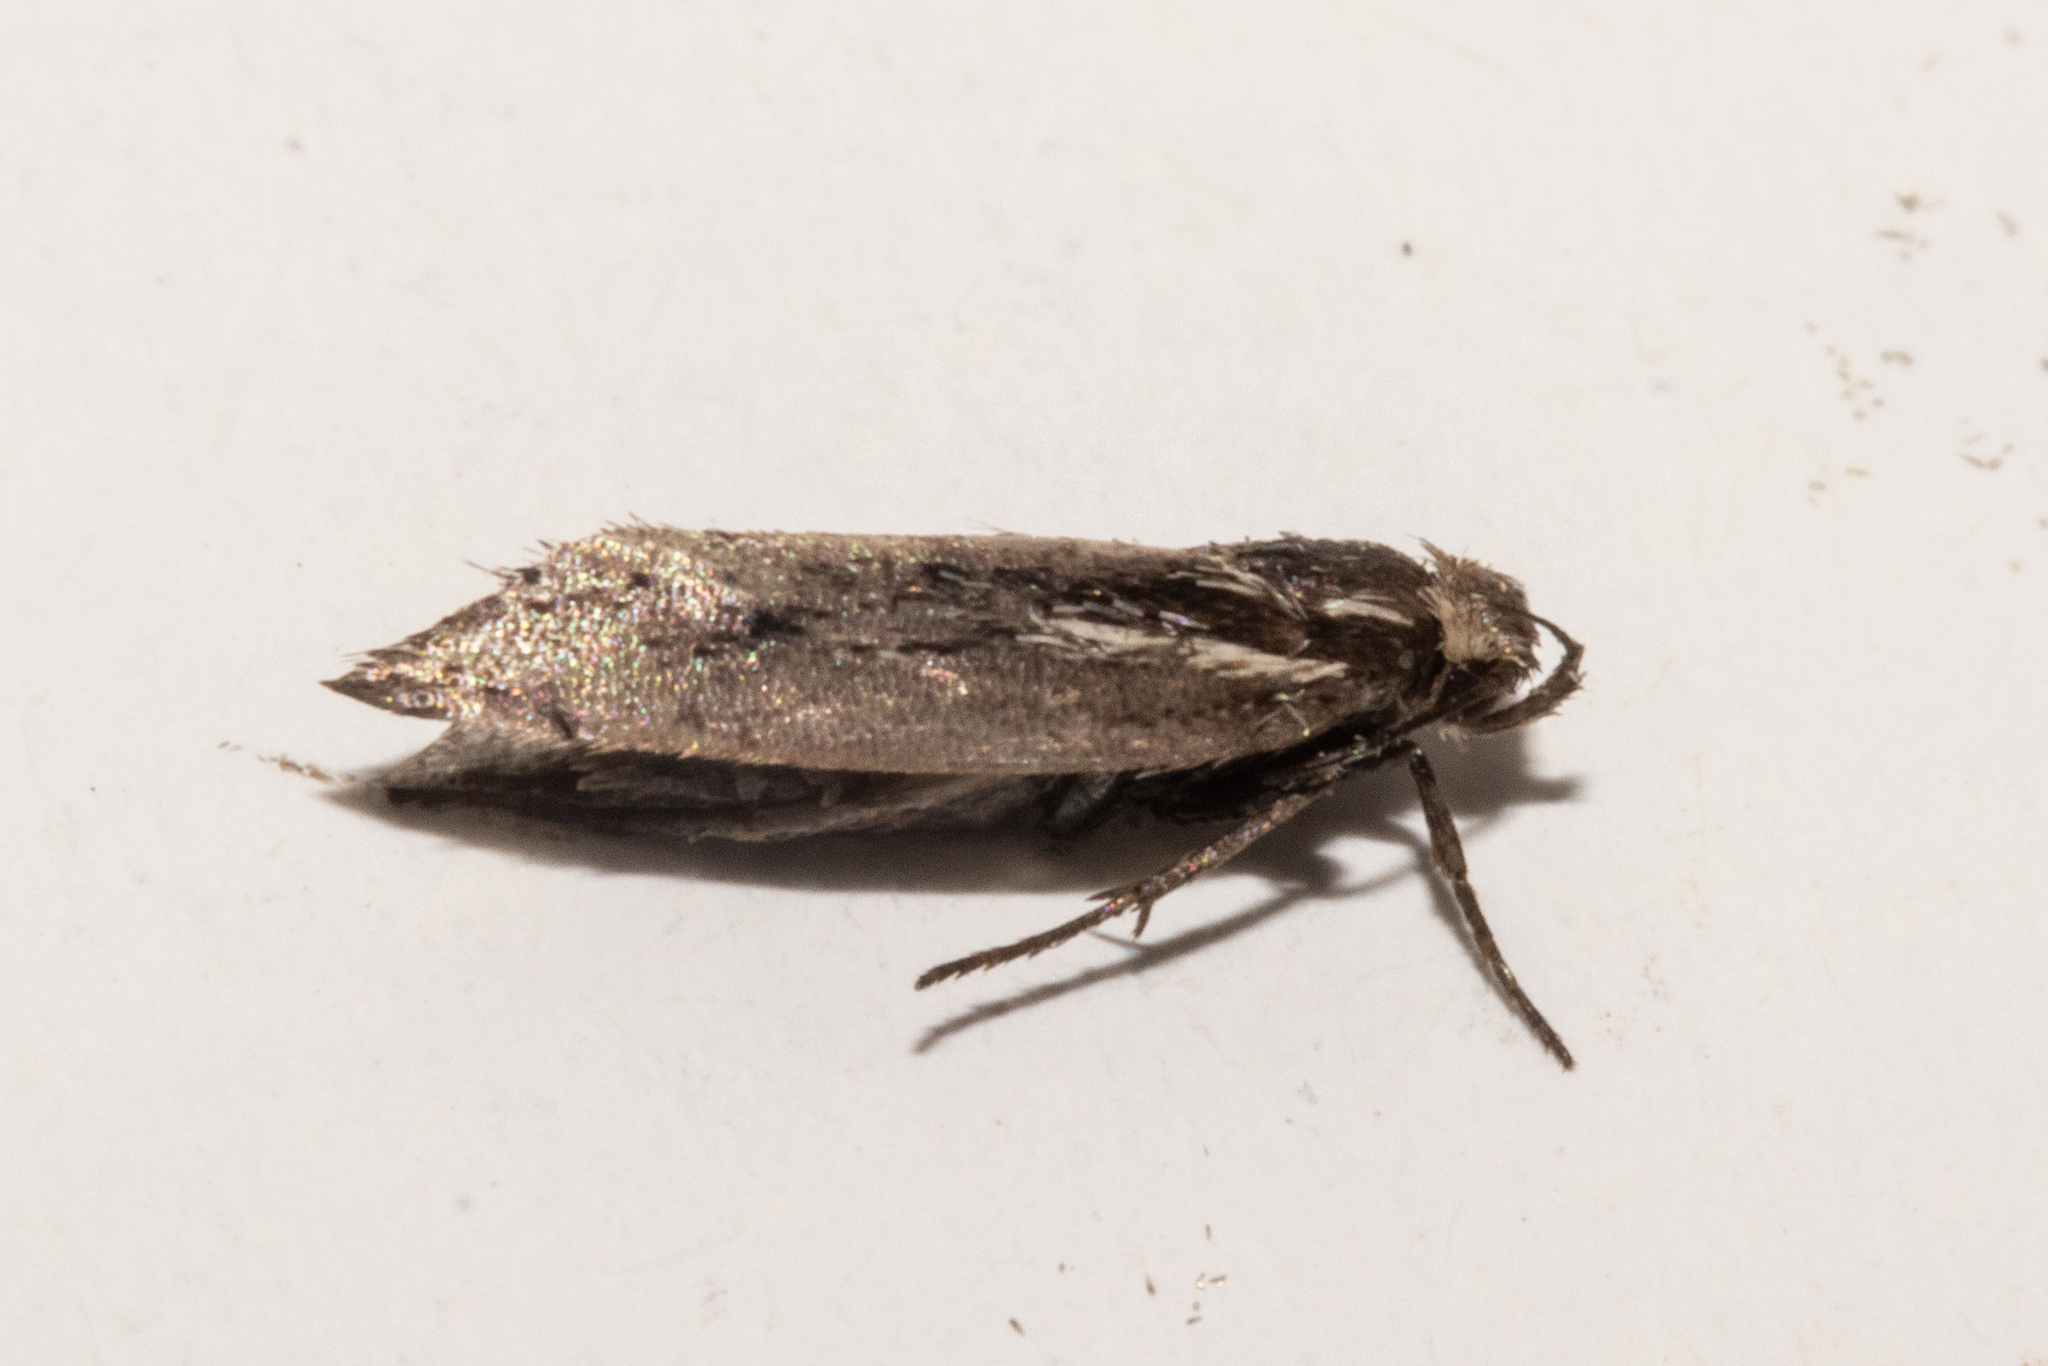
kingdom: Animalia
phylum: Arthropoda
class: Insecta
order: Lepidoptera
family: Oecophoridae
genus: Prepalla
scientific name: Prepalla
